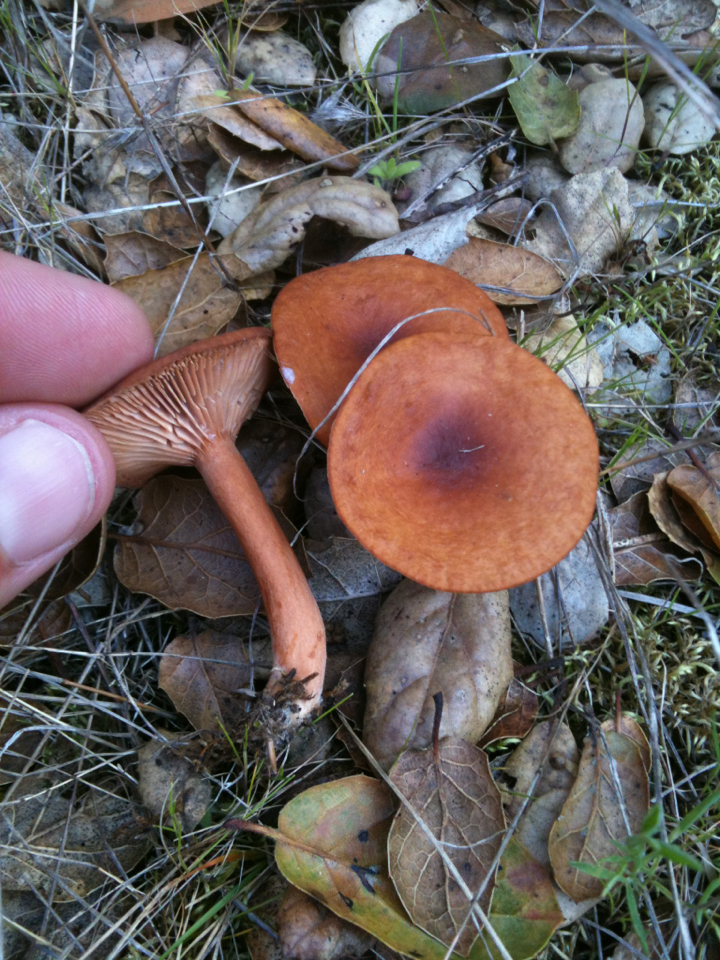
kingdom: Fungi
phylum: Basidiomycota
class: Agaricomycetes
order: Russulales
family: Russulaceae
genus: Lactarius
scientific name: Lactarius rubidus
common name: Candy cap
